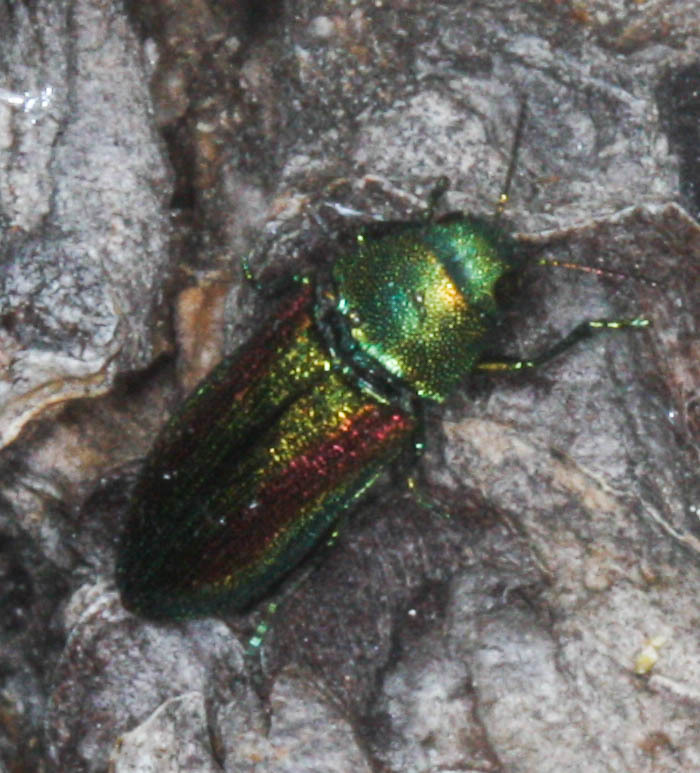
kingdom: Animalia
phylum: Arthropoda
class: Insecta
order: Coleoptera
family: Buprestidae
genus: Chrysophana
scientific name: Chrysophana placida
